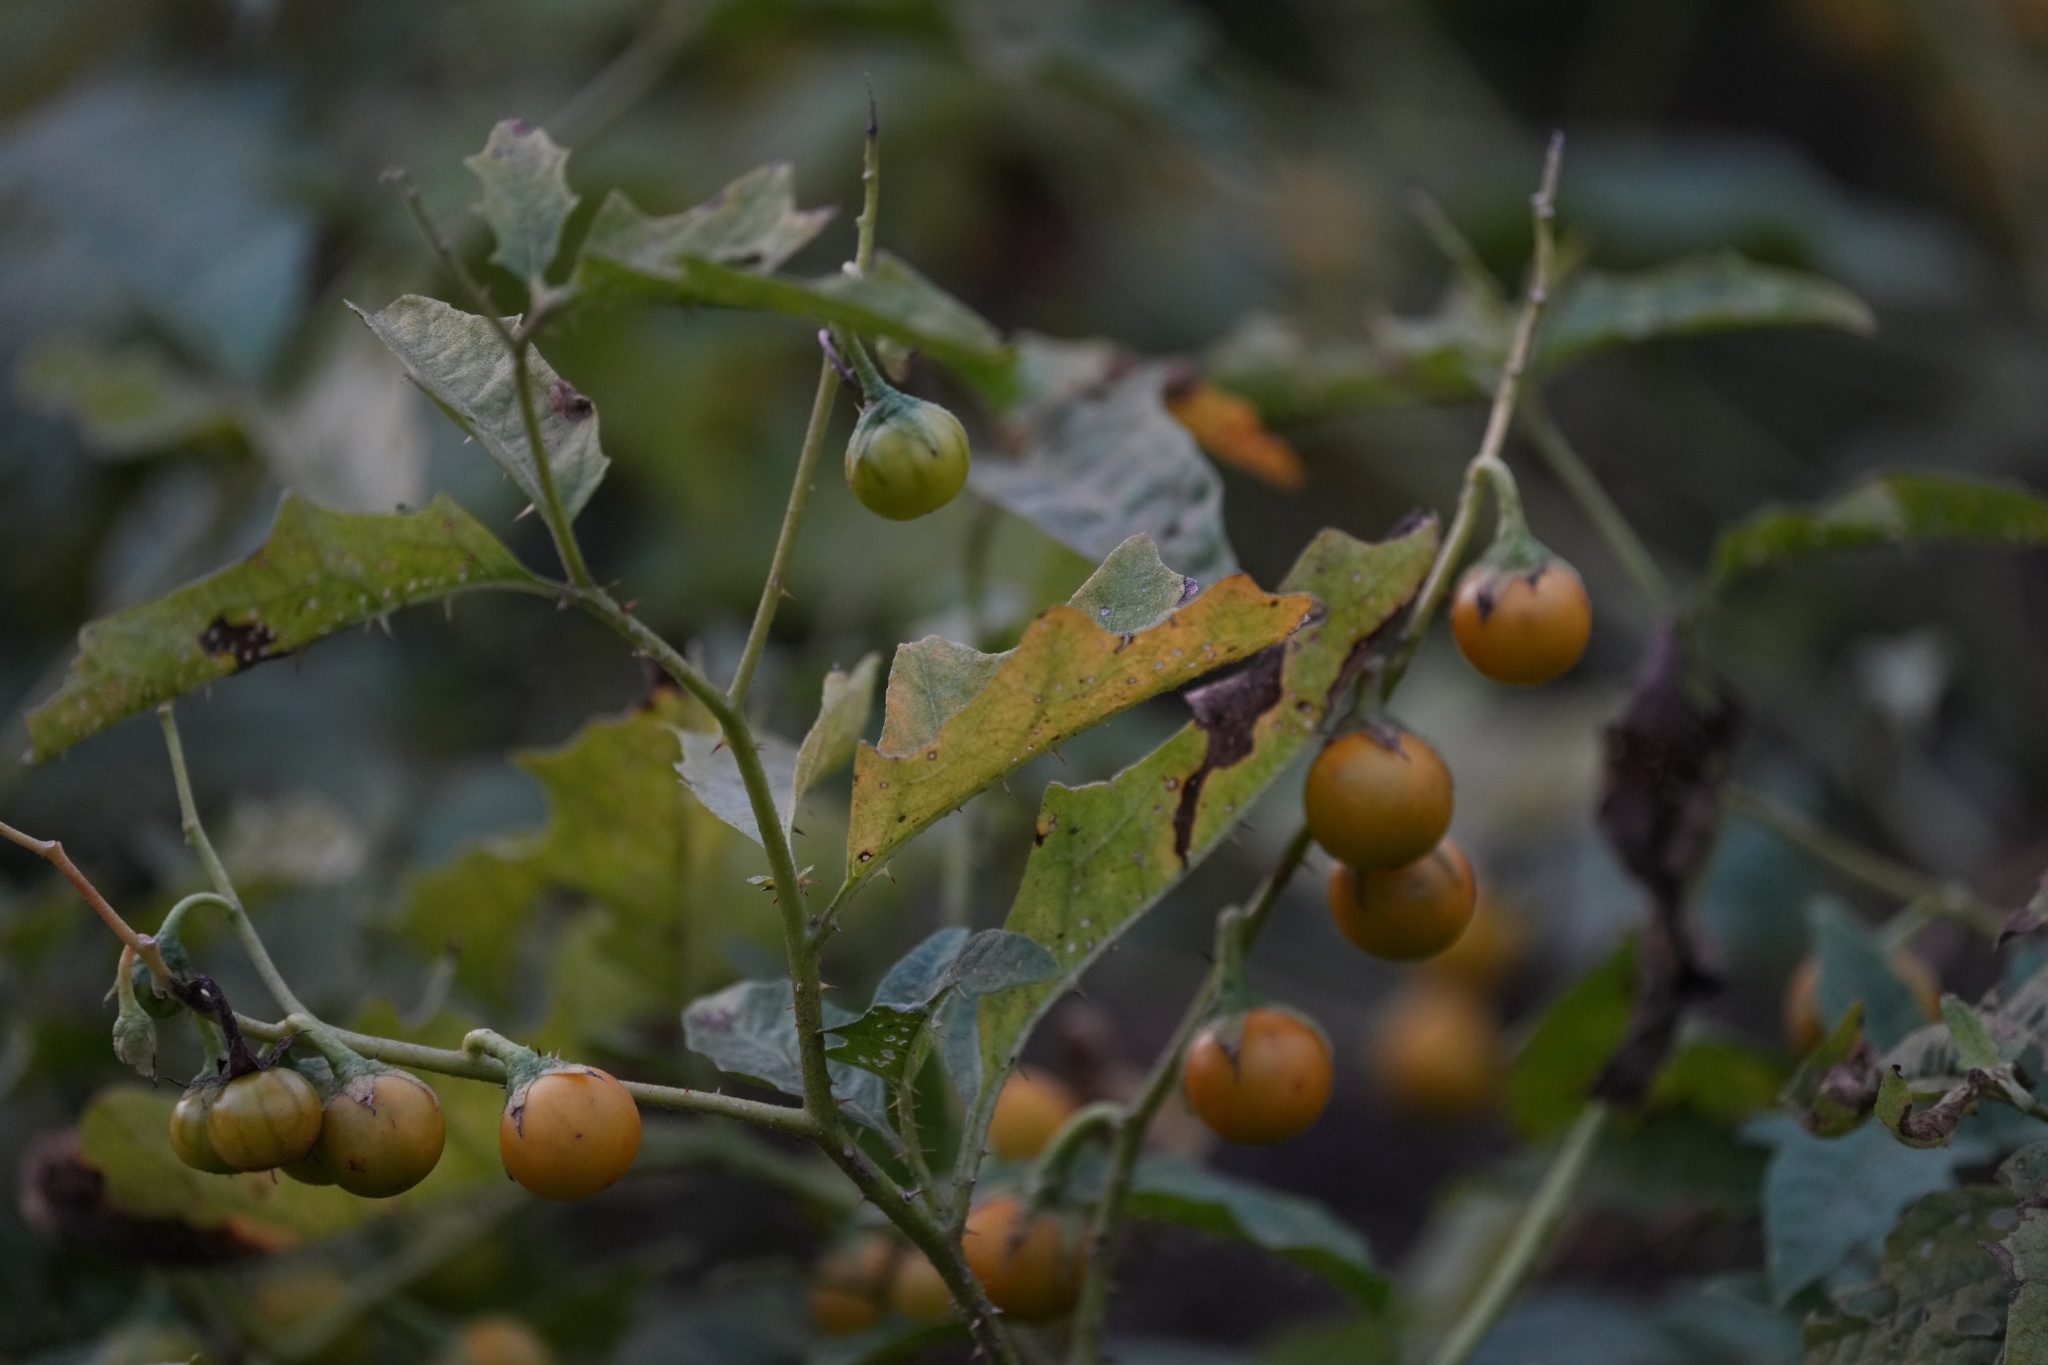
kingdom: Plantae
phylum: Tracheophyta
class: Magnoliopsida
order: Solanales
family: Solanaceae
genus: Solanum
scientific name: Solanum carolinense
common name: Horse-nettle
